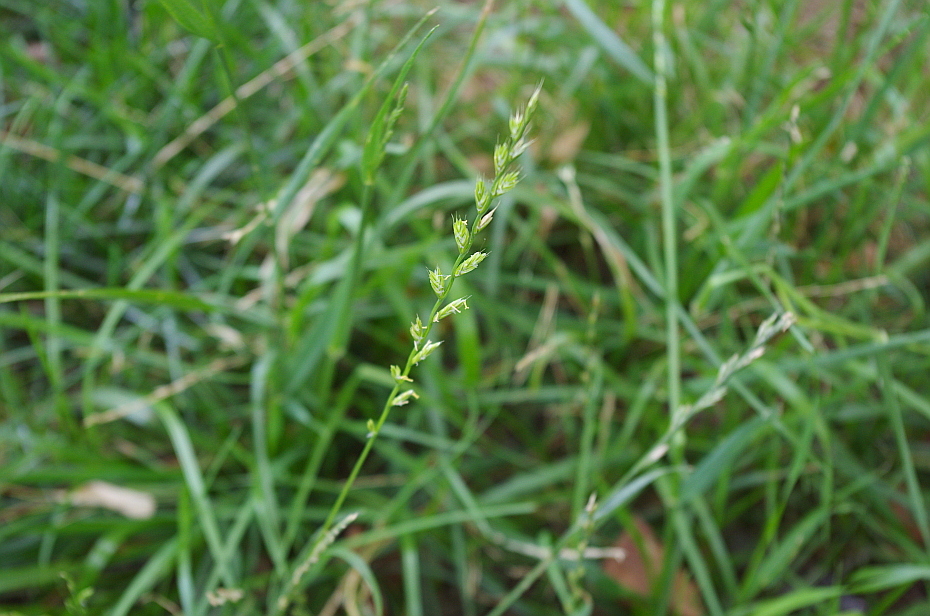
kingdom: Plantae
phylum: Tracheophyta
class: Liliopsida
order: Poales
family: Poaceae
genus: Lolium
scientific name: Lolium perenne
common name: Perennial ryegrass
